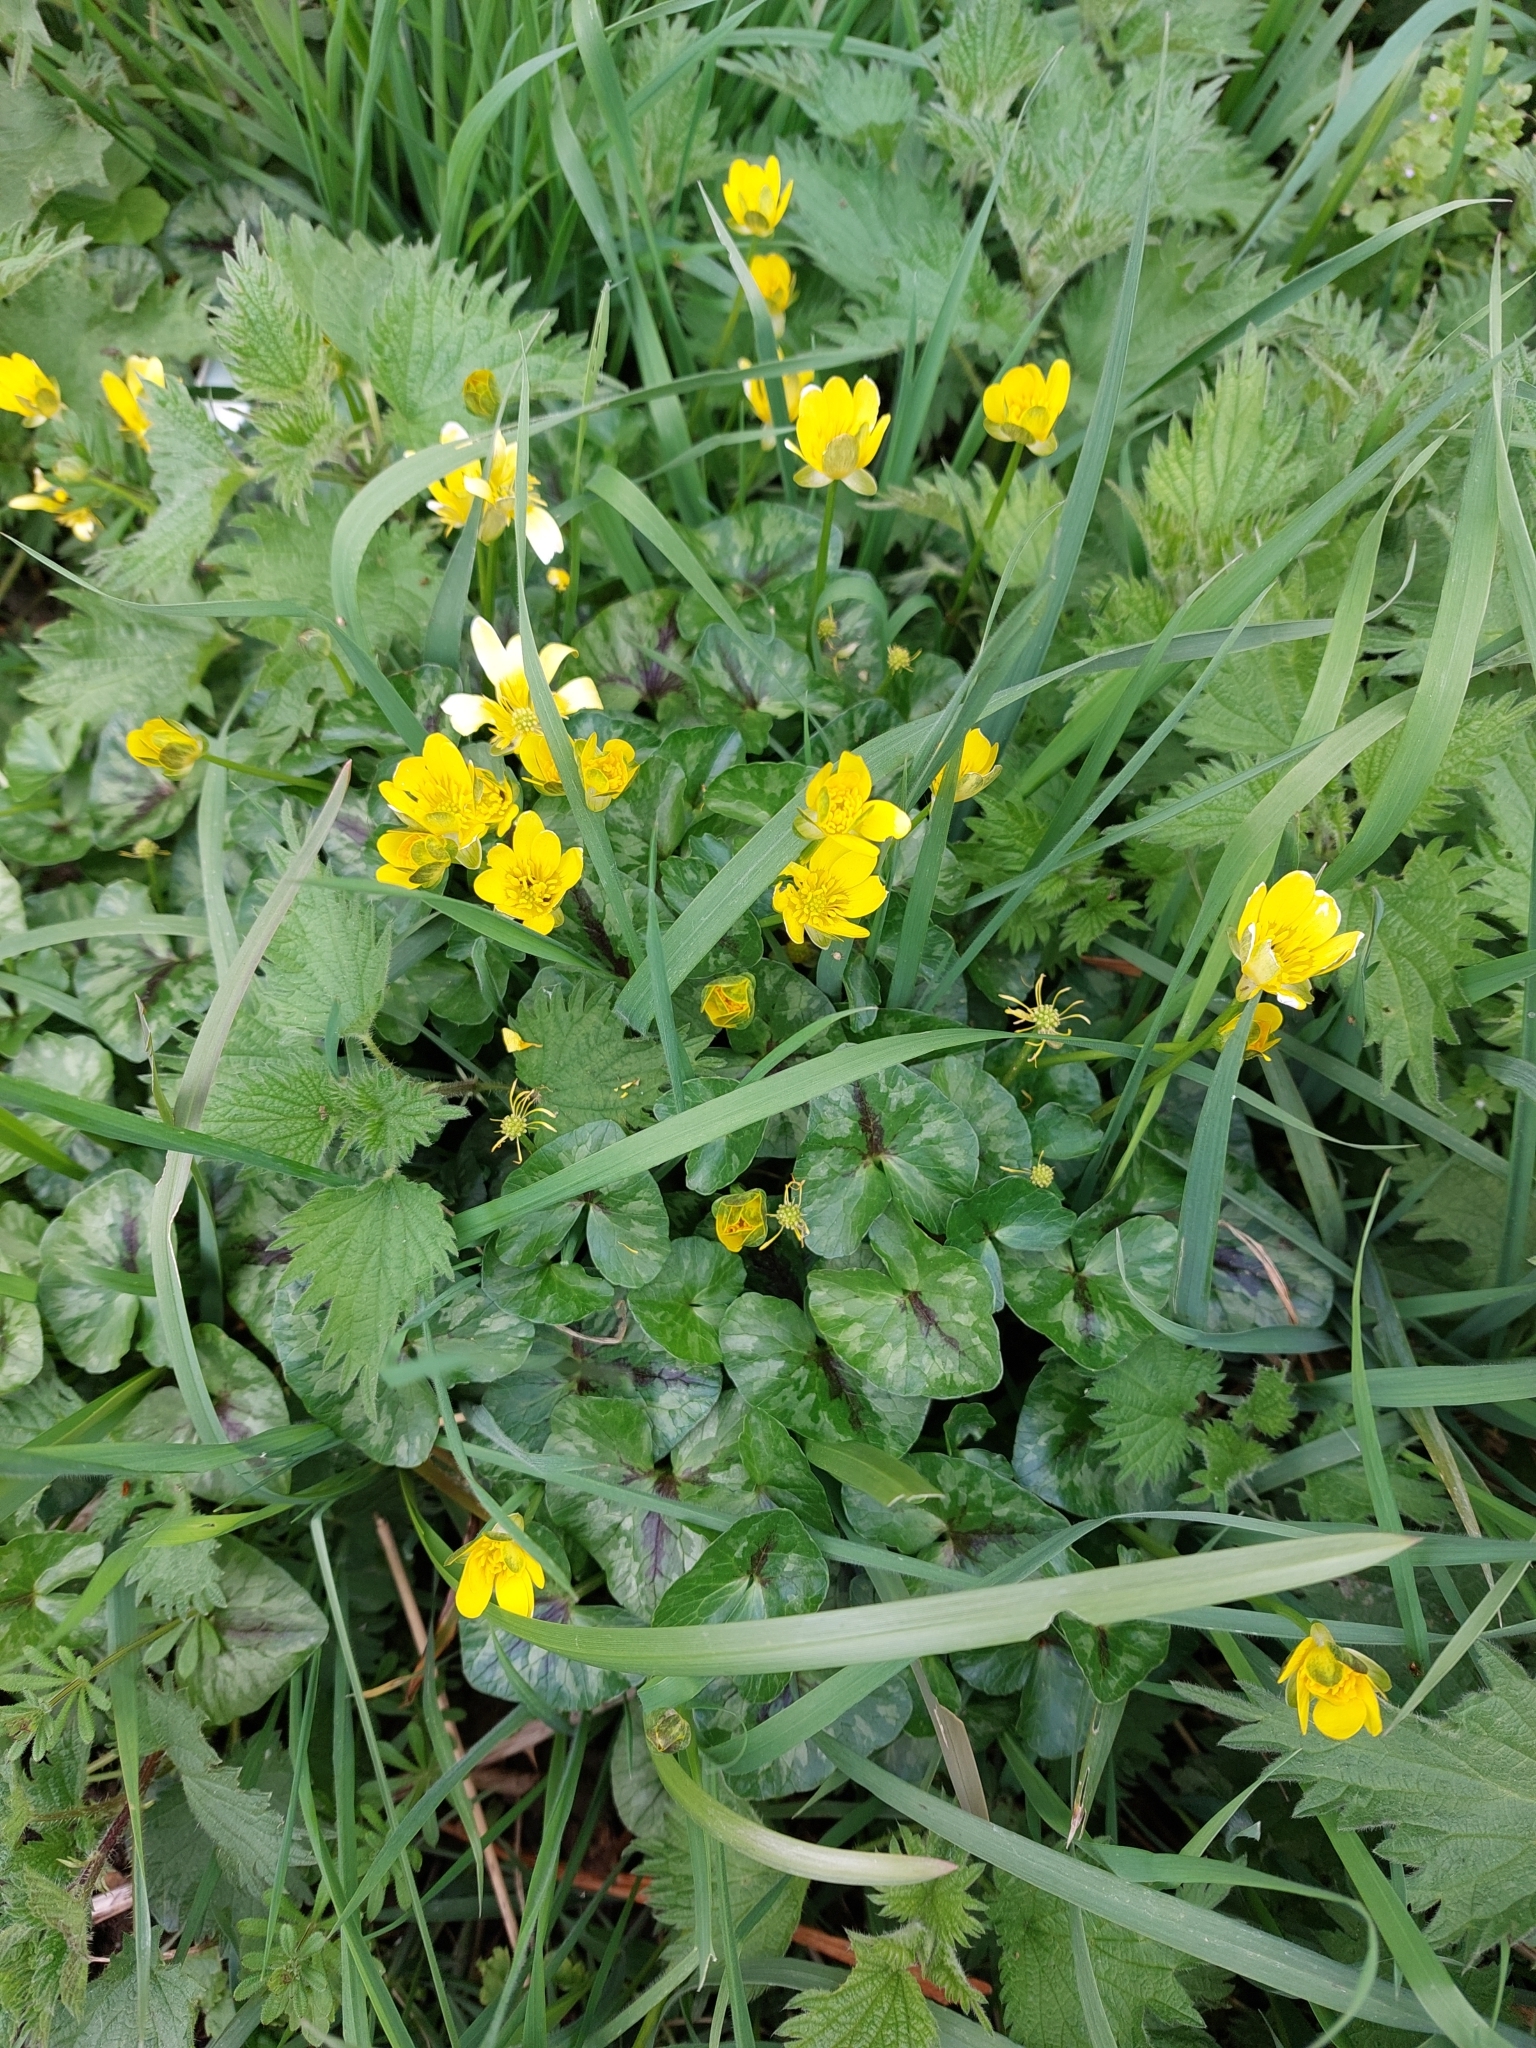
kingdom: Plantae
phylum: Tracheophyta
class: Magnoliopsida
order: Ranunculales
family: Ranunculaceae
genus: Ficaria
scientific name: Ficaria verna
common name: Lesser celandine
